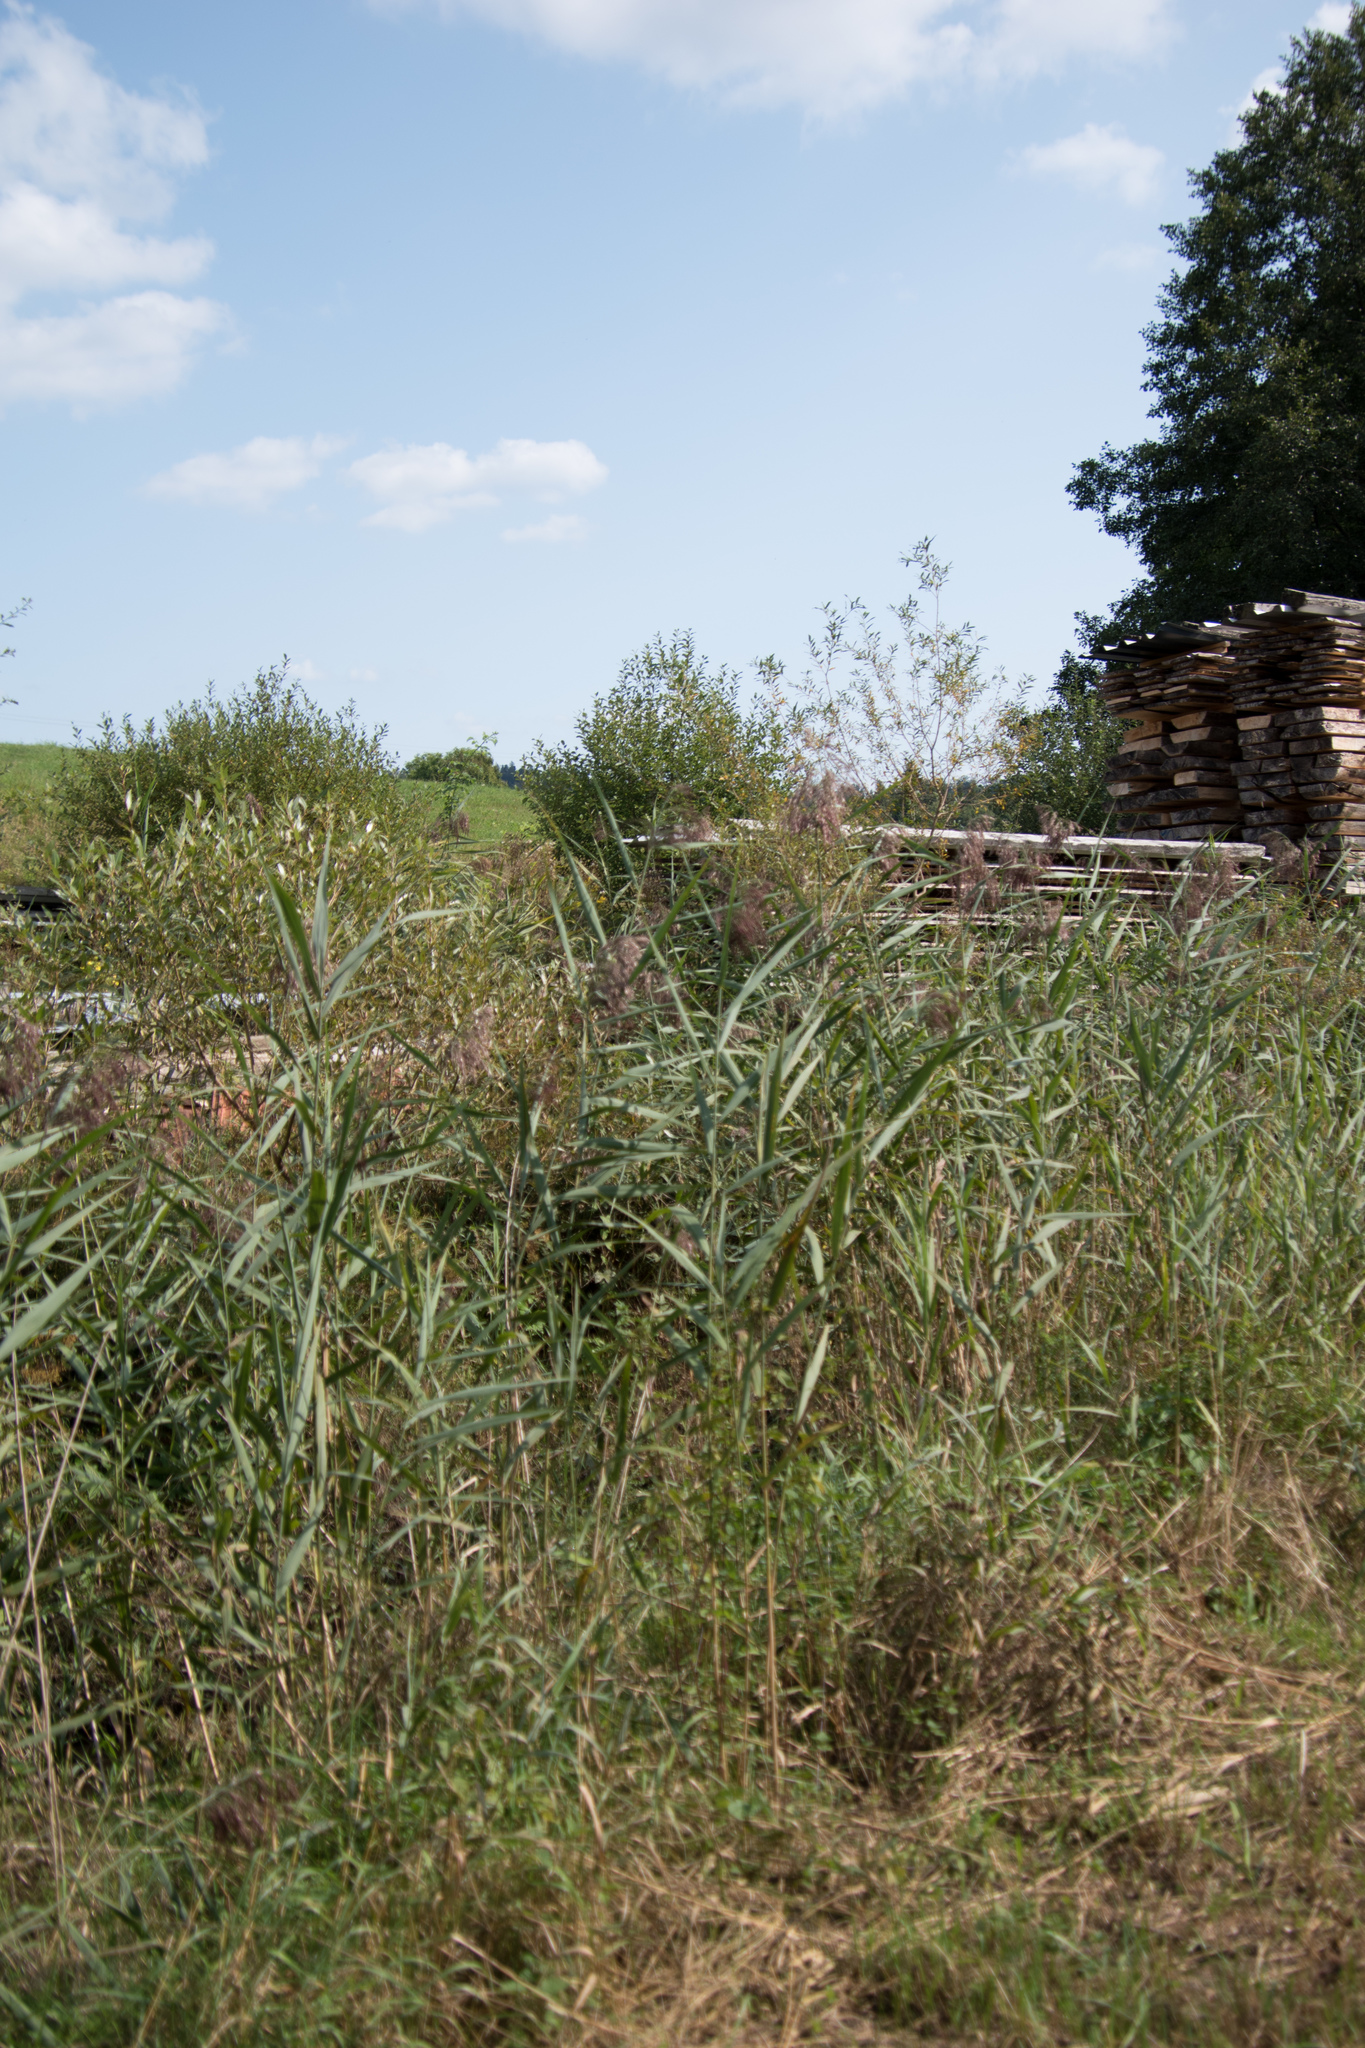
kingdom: Plantae
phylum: Tracheophyta
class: Liliopsida
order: Poales
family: Poaceae
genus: Phragmites
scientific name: Phragmites australis
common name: Common reed
